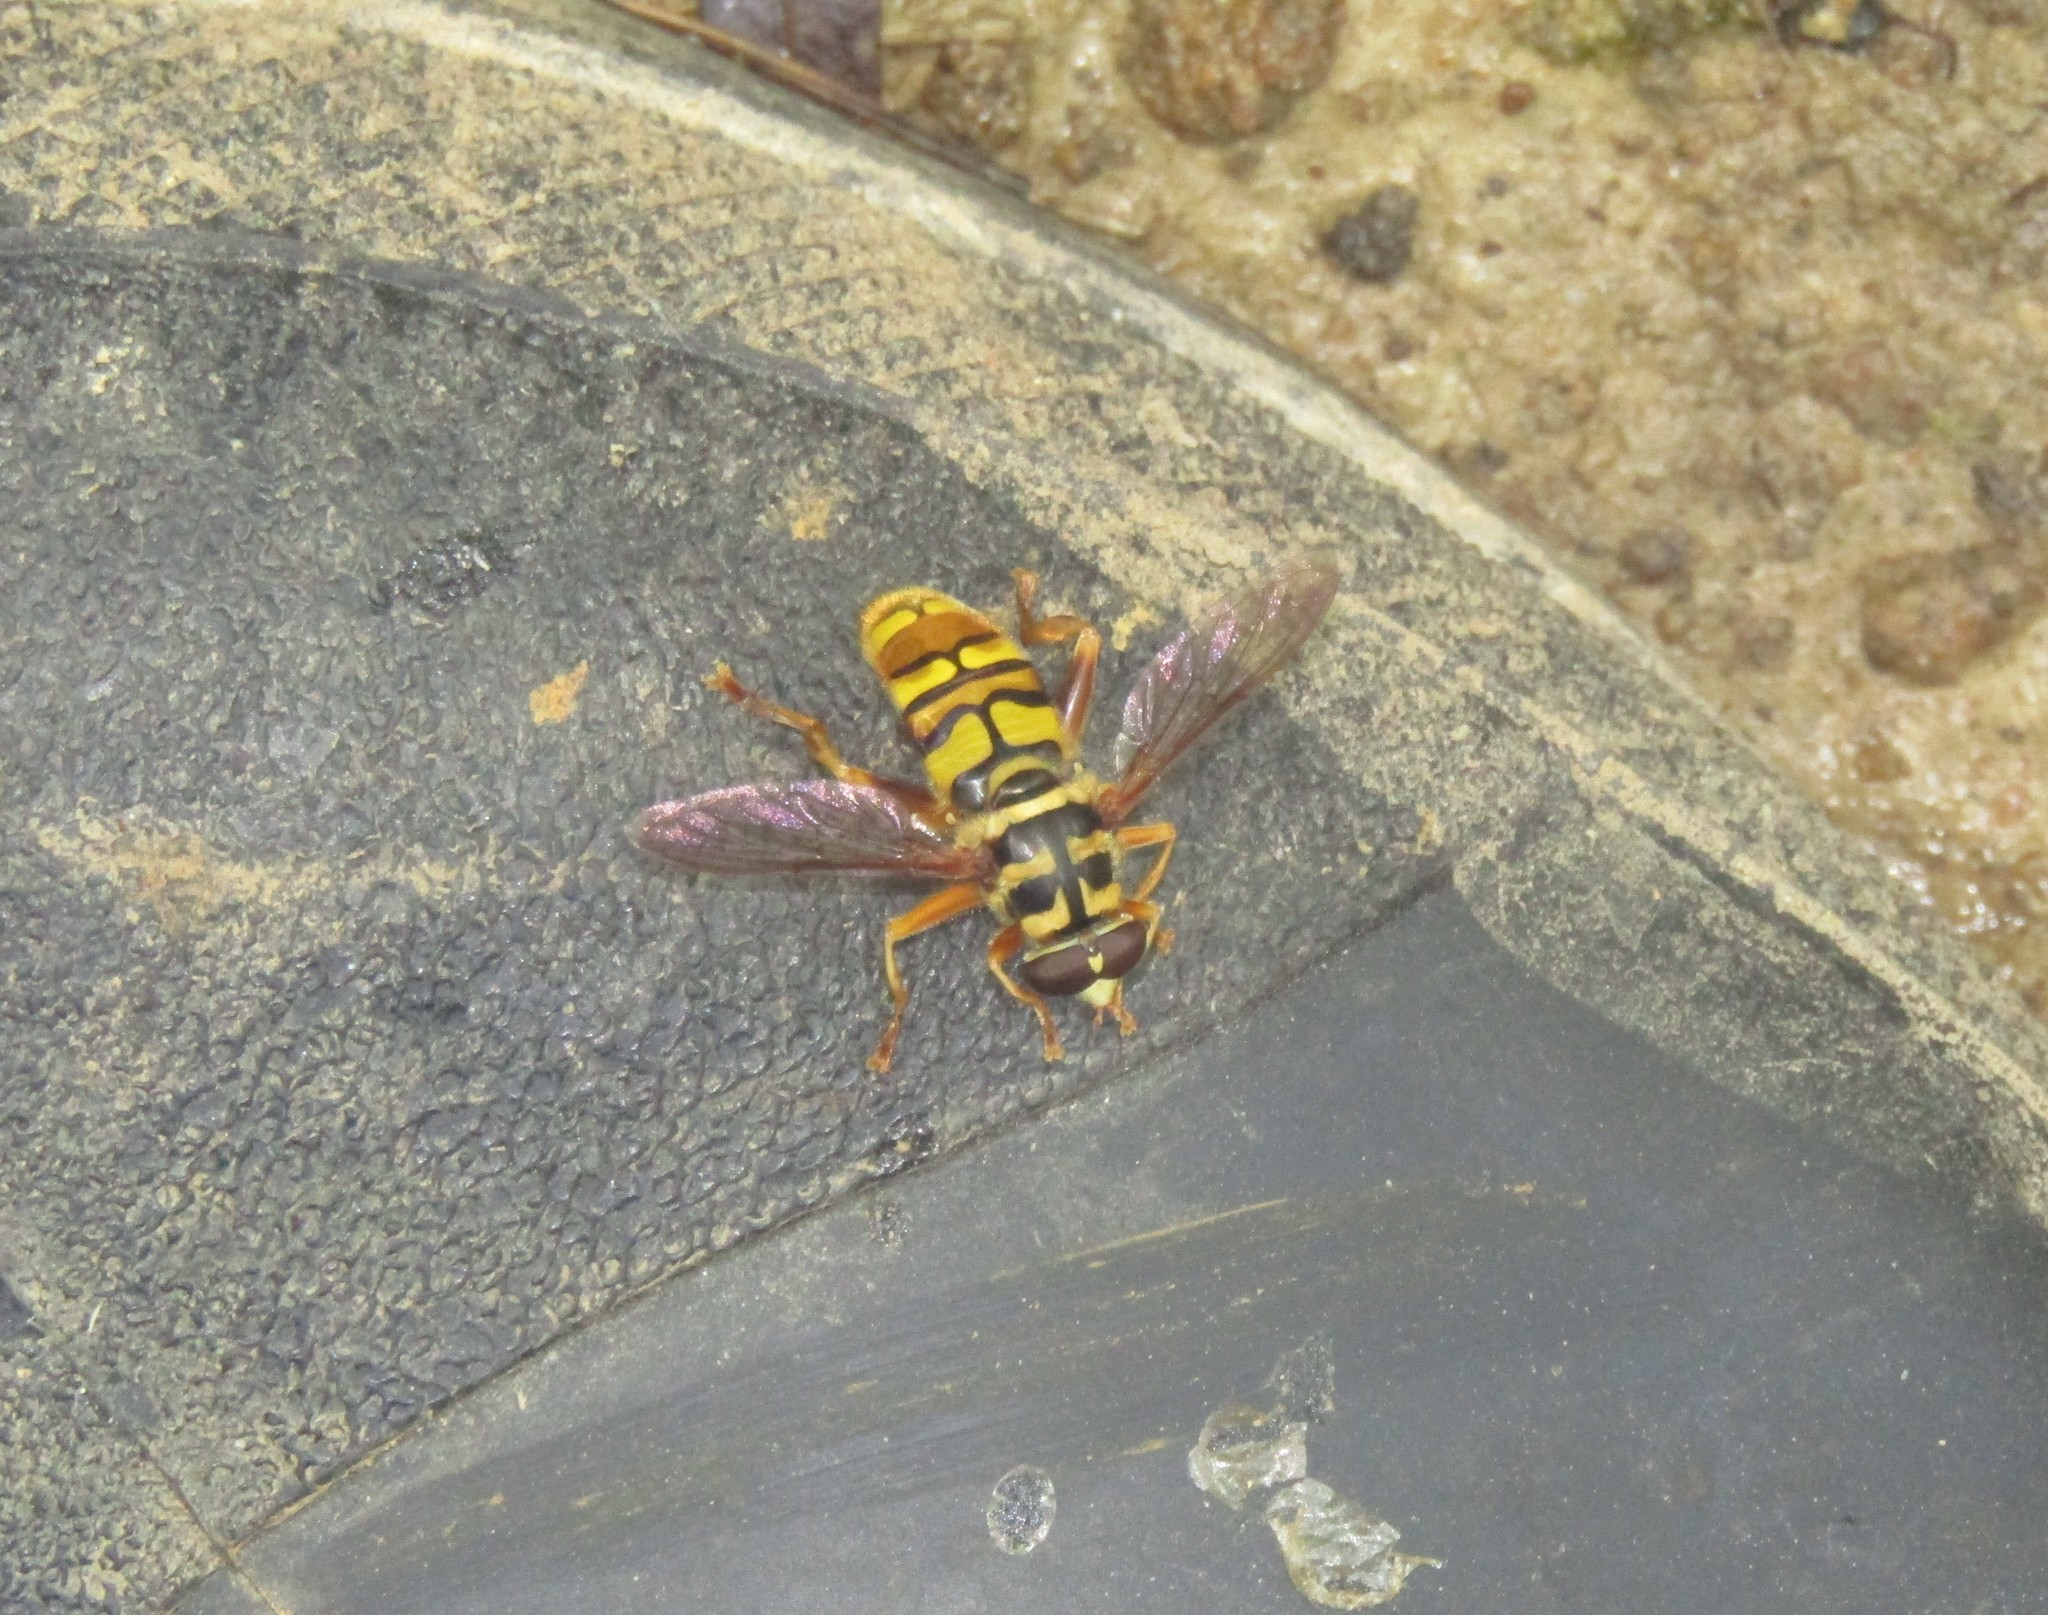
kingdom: Animalia
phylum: Arthropoda
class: Insecta
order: Diptera
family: Syrphidae
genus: Milesia
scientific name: Milesia virginiensis
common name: Virginia giant
